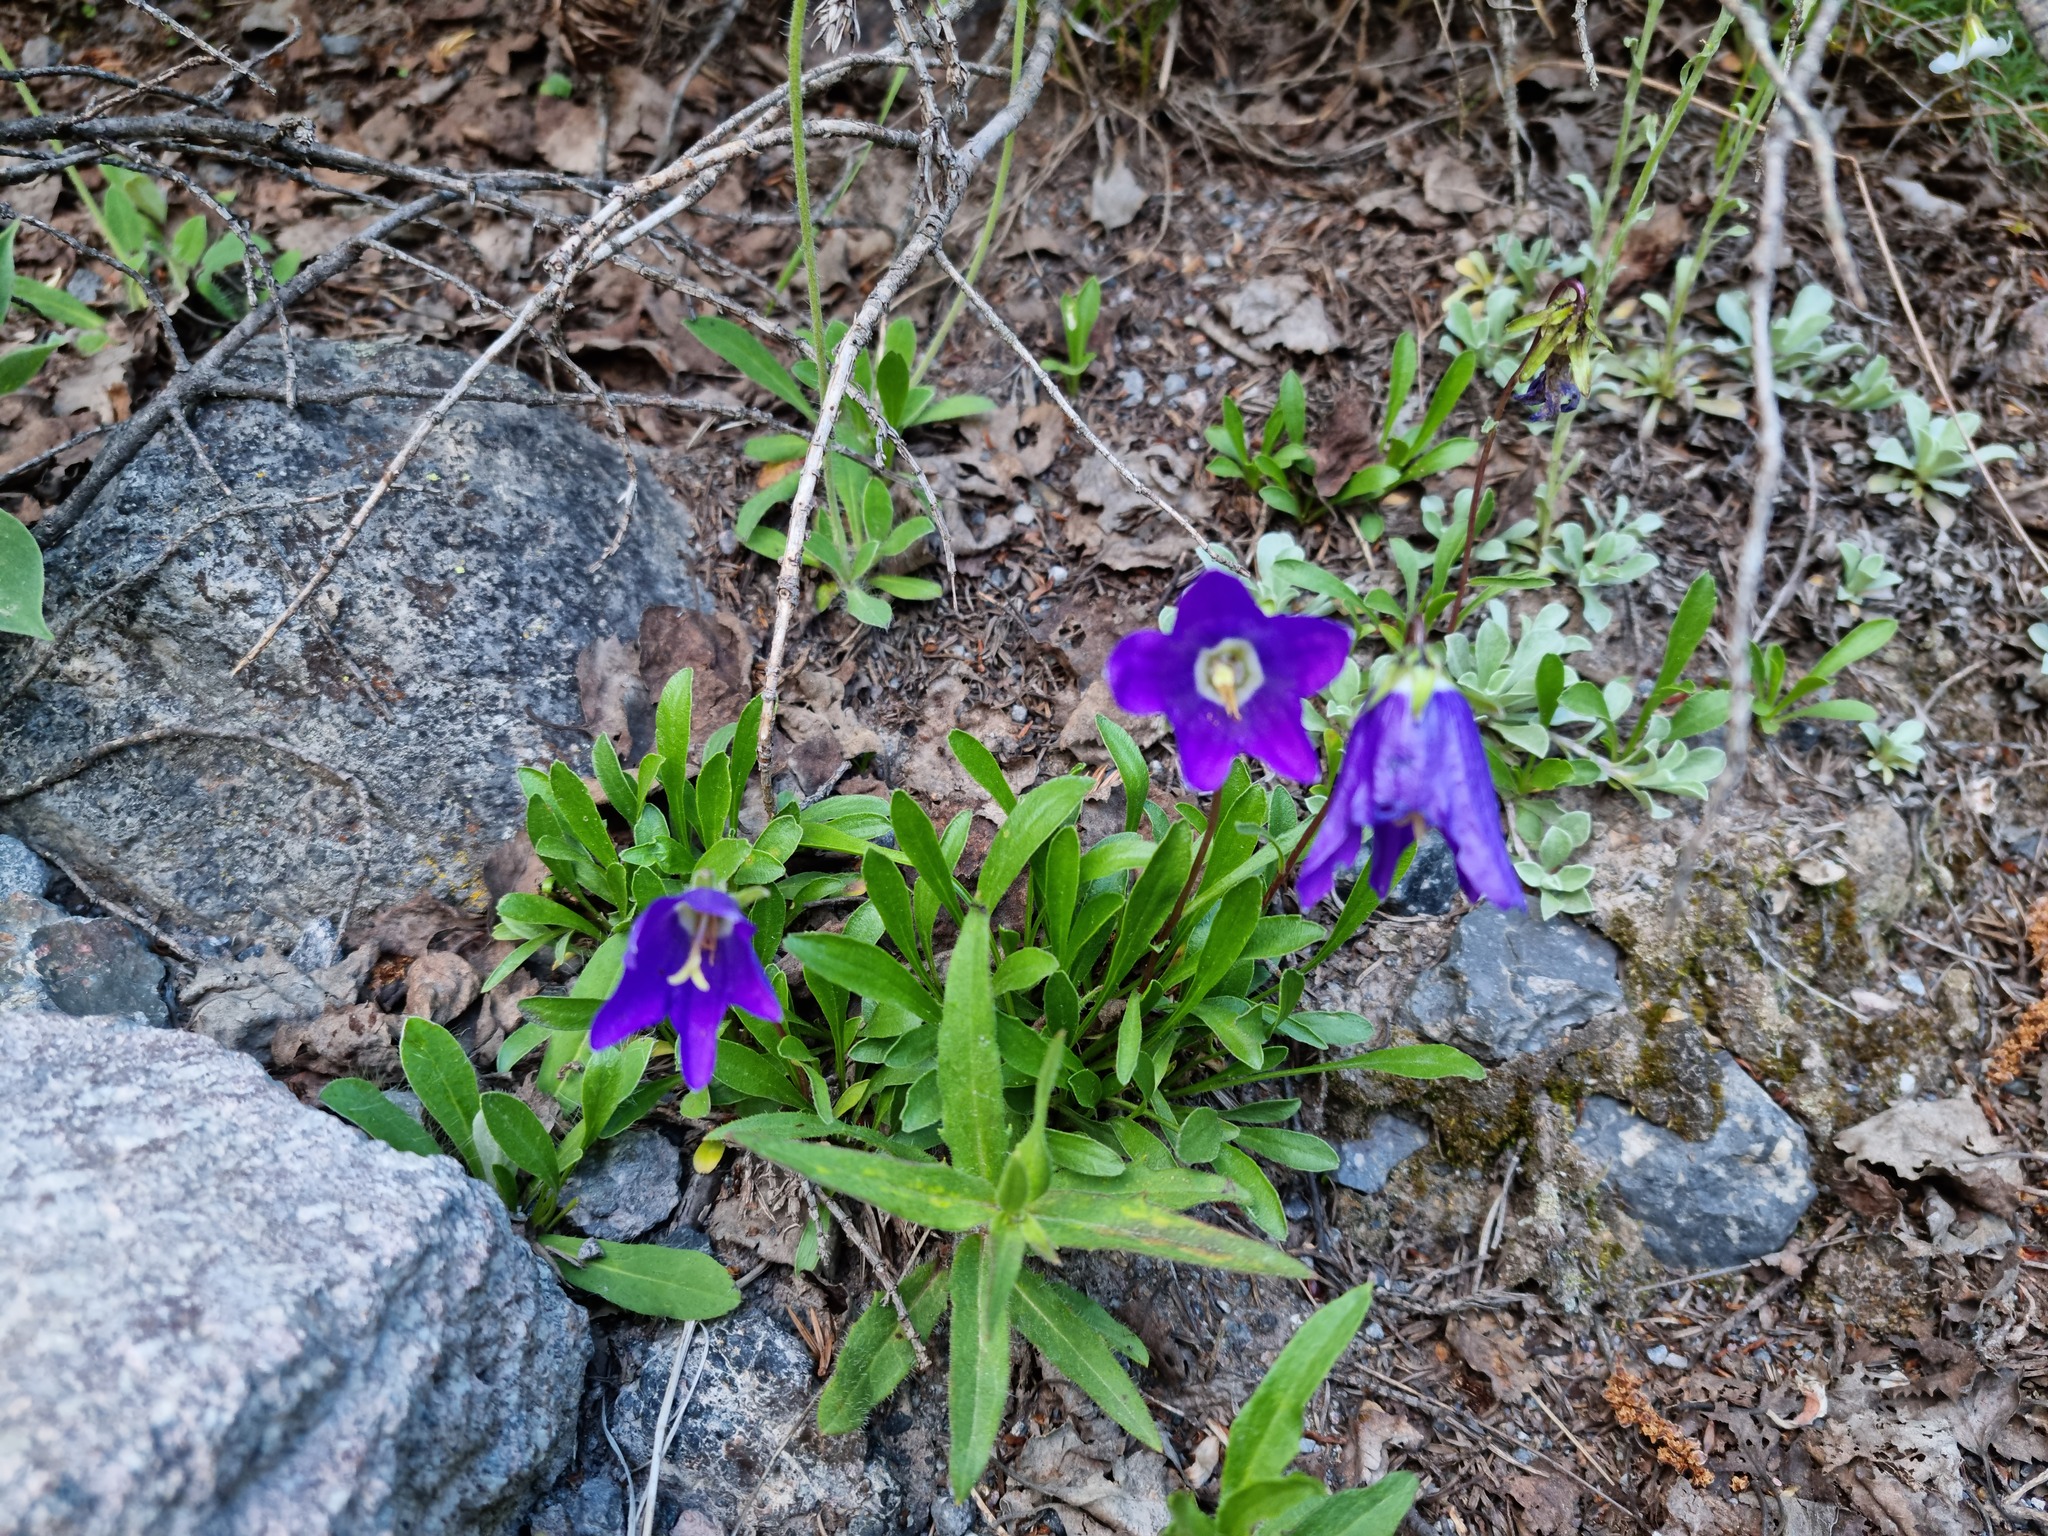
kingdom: Plantae
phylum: Tracheophyta
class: Magnoliopsida
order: Asterales
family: Campanulaceae
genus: Campanula
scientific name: Campanula saxifraga
